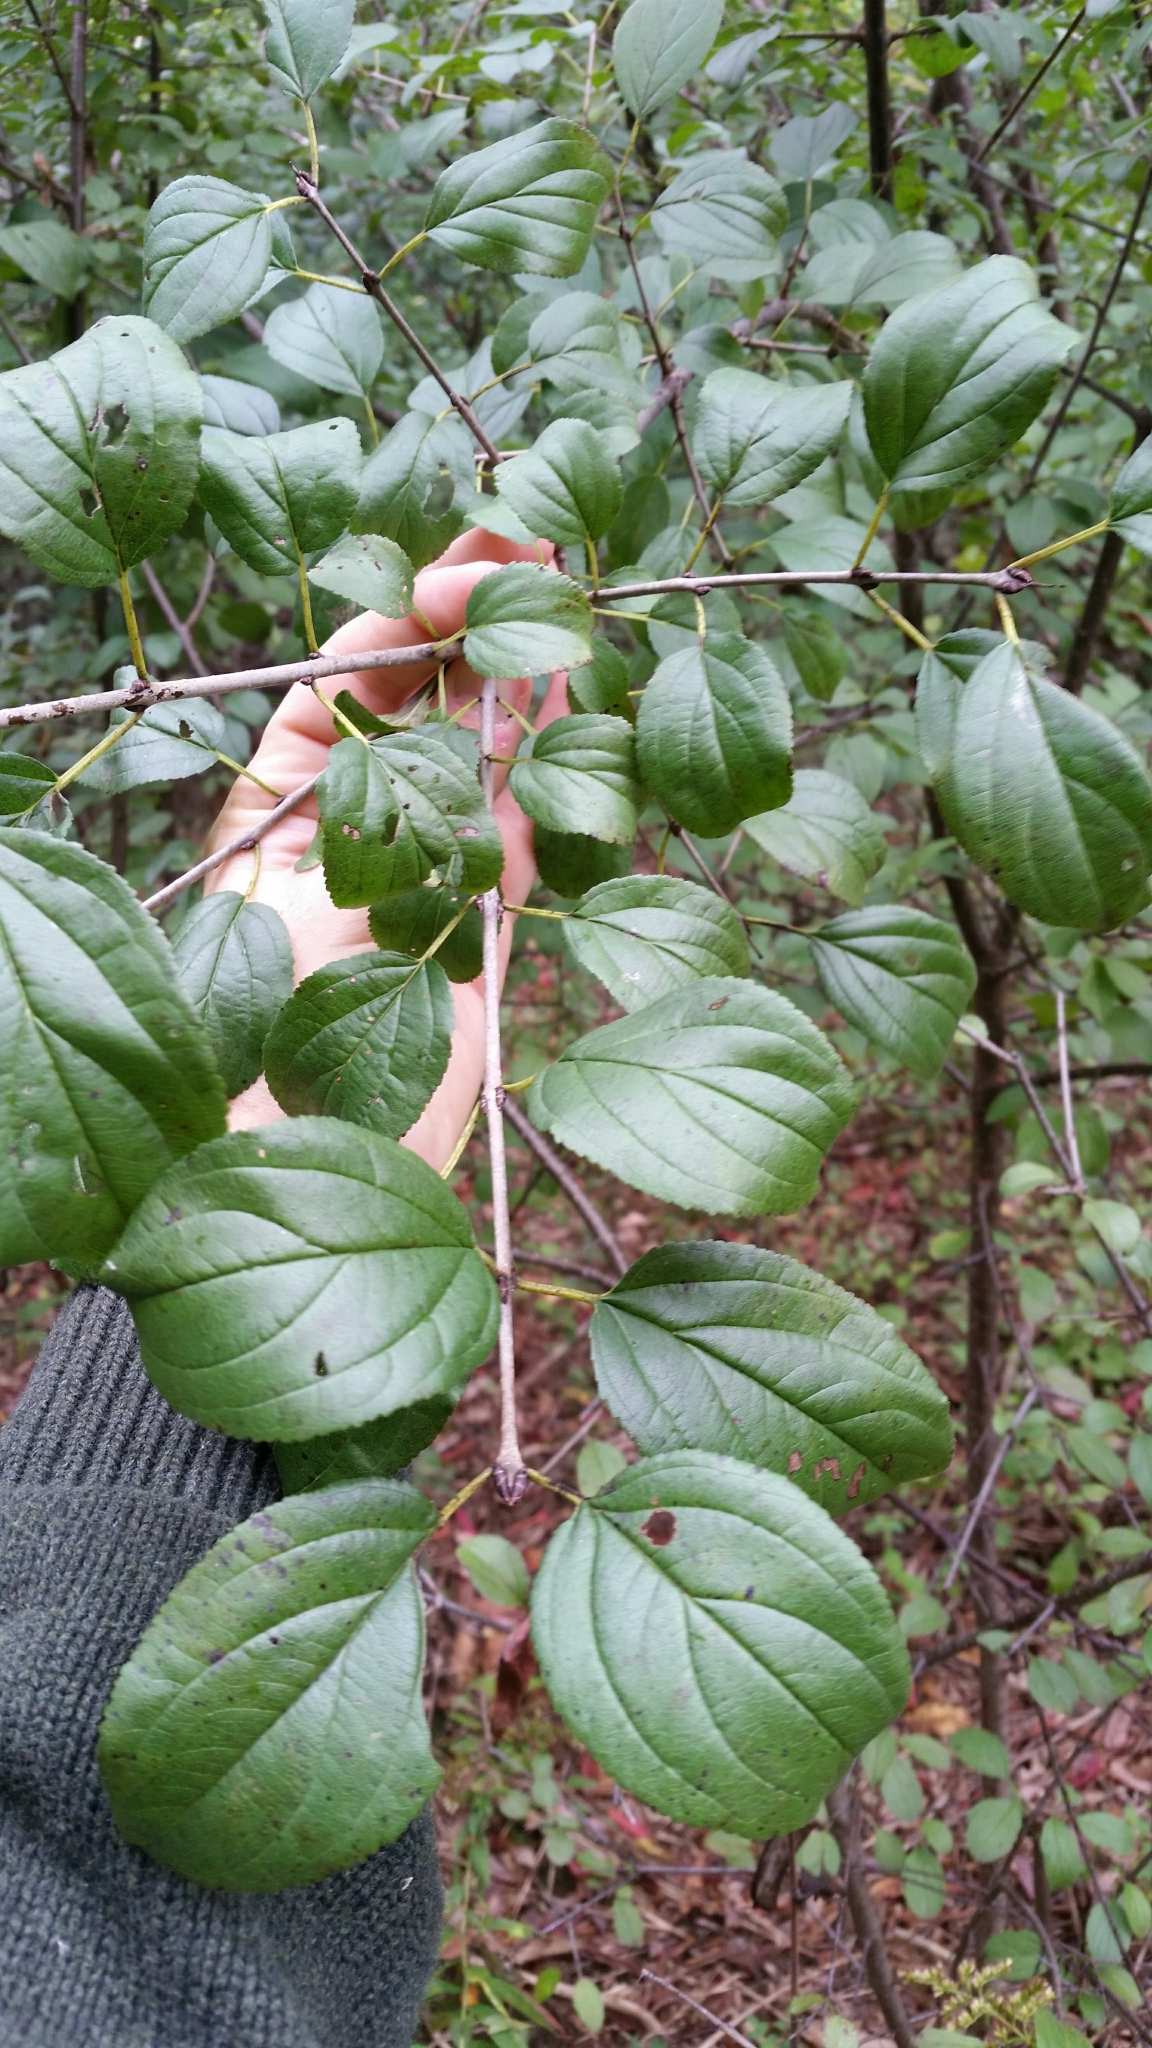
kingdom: Plantae
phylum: Tracheophyta
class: Magnoliopsida
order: Rosales
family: Rhamnaceae
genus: Rhamnus
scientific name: Rhamnus cathartica
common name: Common buckthorn
